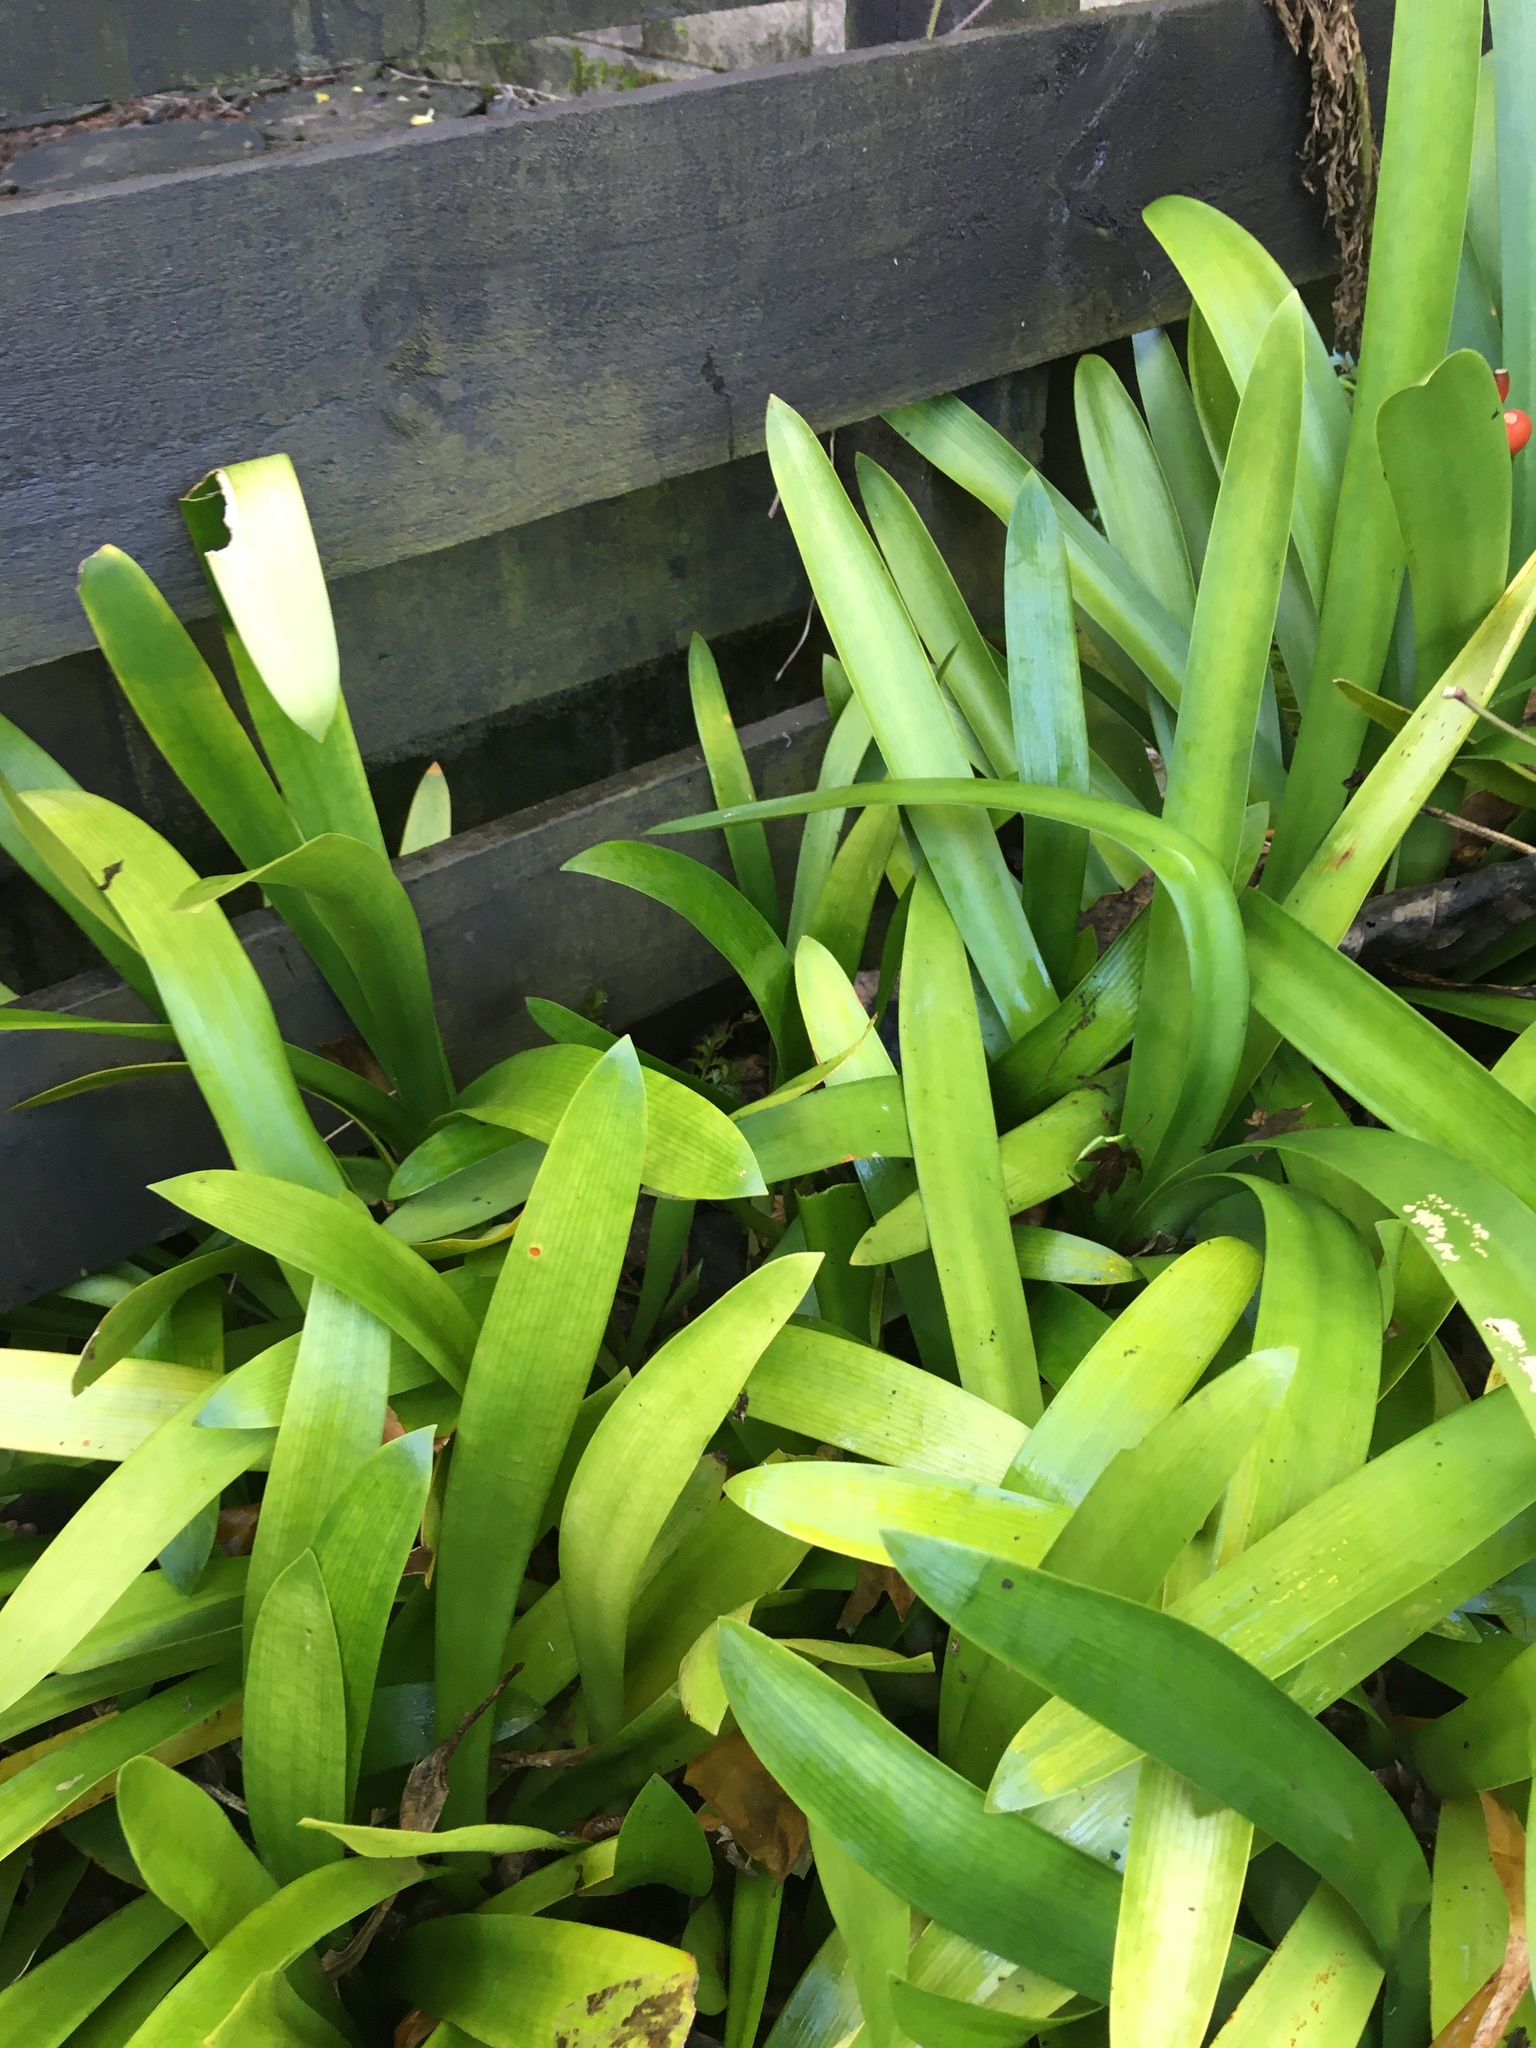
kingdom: Plantae
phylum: Tracheophyta
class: Pinopsida
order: Pinales
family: Phyllocladaceae
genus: Phyllocladus
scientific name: Phyllocladus trichomanoides
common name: Celery pine
